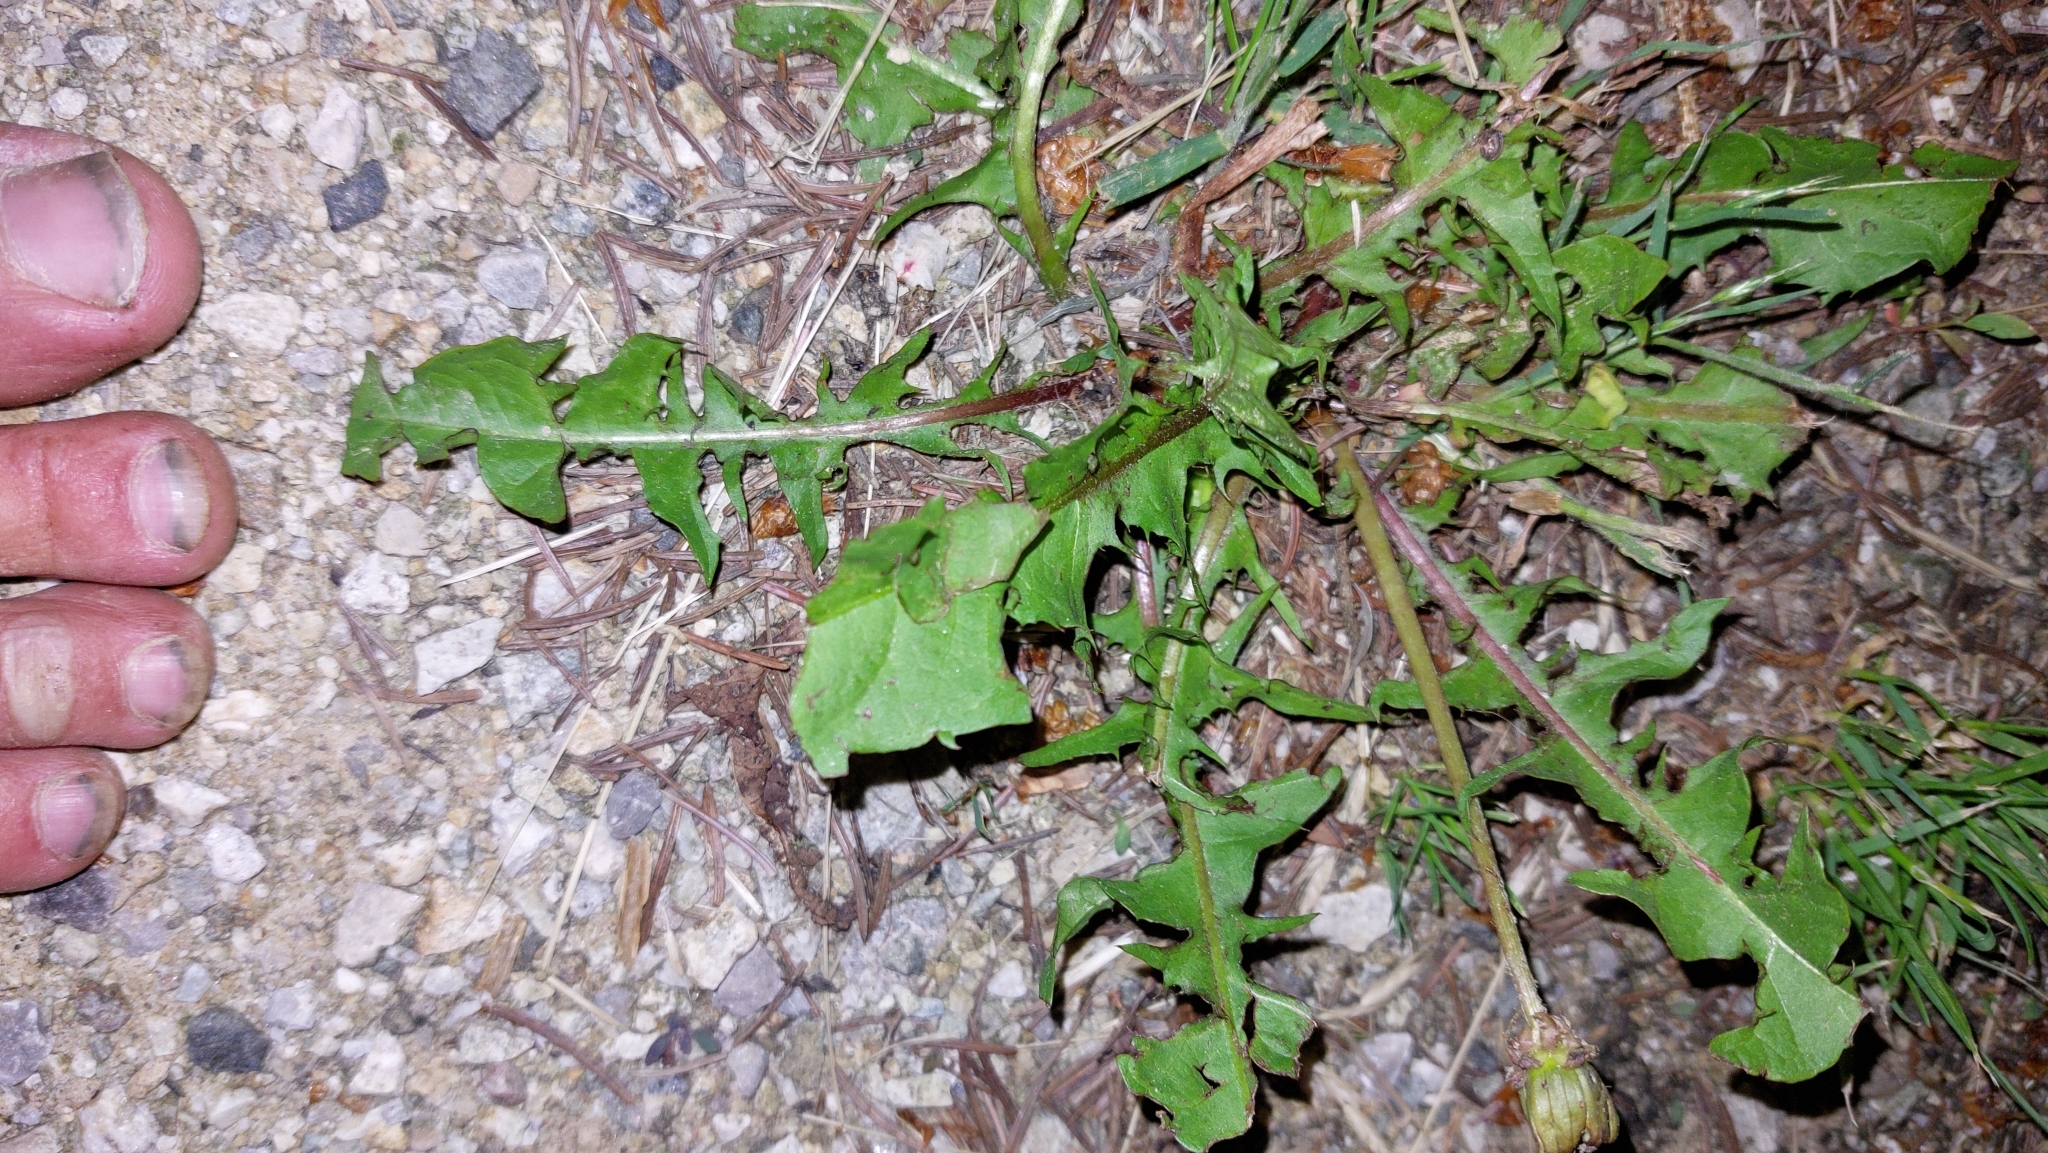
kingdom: Plantae
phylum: Tracheophyta
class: Magnoliopsida
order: Asterales
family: Asteraceae
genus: Taraxacum
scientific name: Taraxacum
